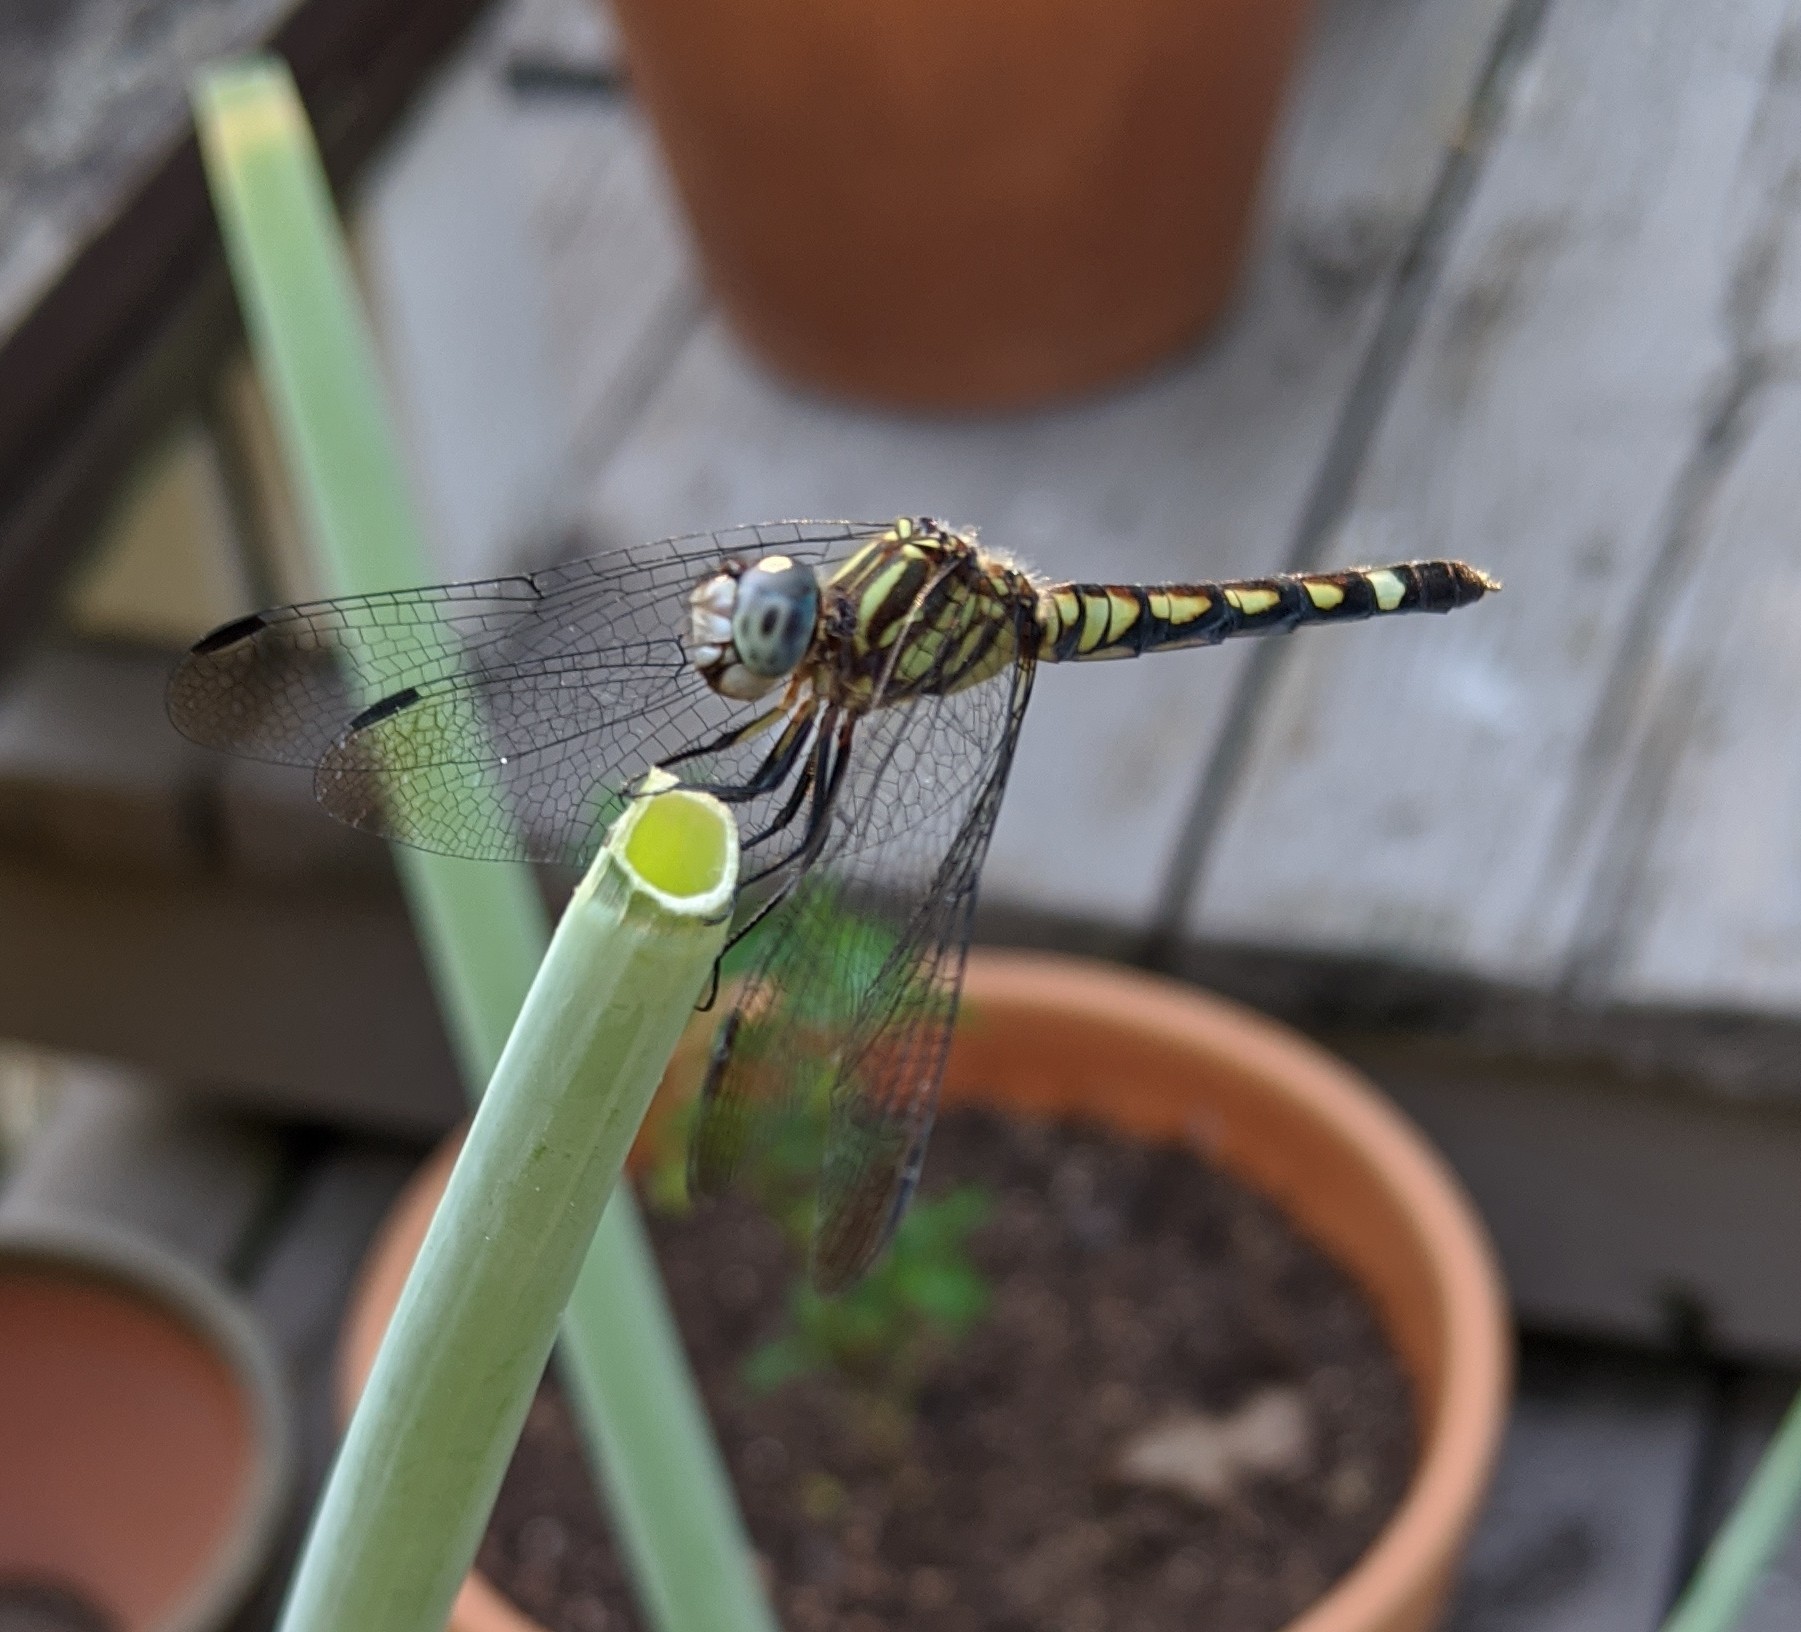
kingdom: Animalia
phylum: Arthropoda
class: Insecta
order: Odonata
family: Libellulidae
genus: Micrathyria
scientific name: Micrathyria hagenii
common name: Thornbush dasher
